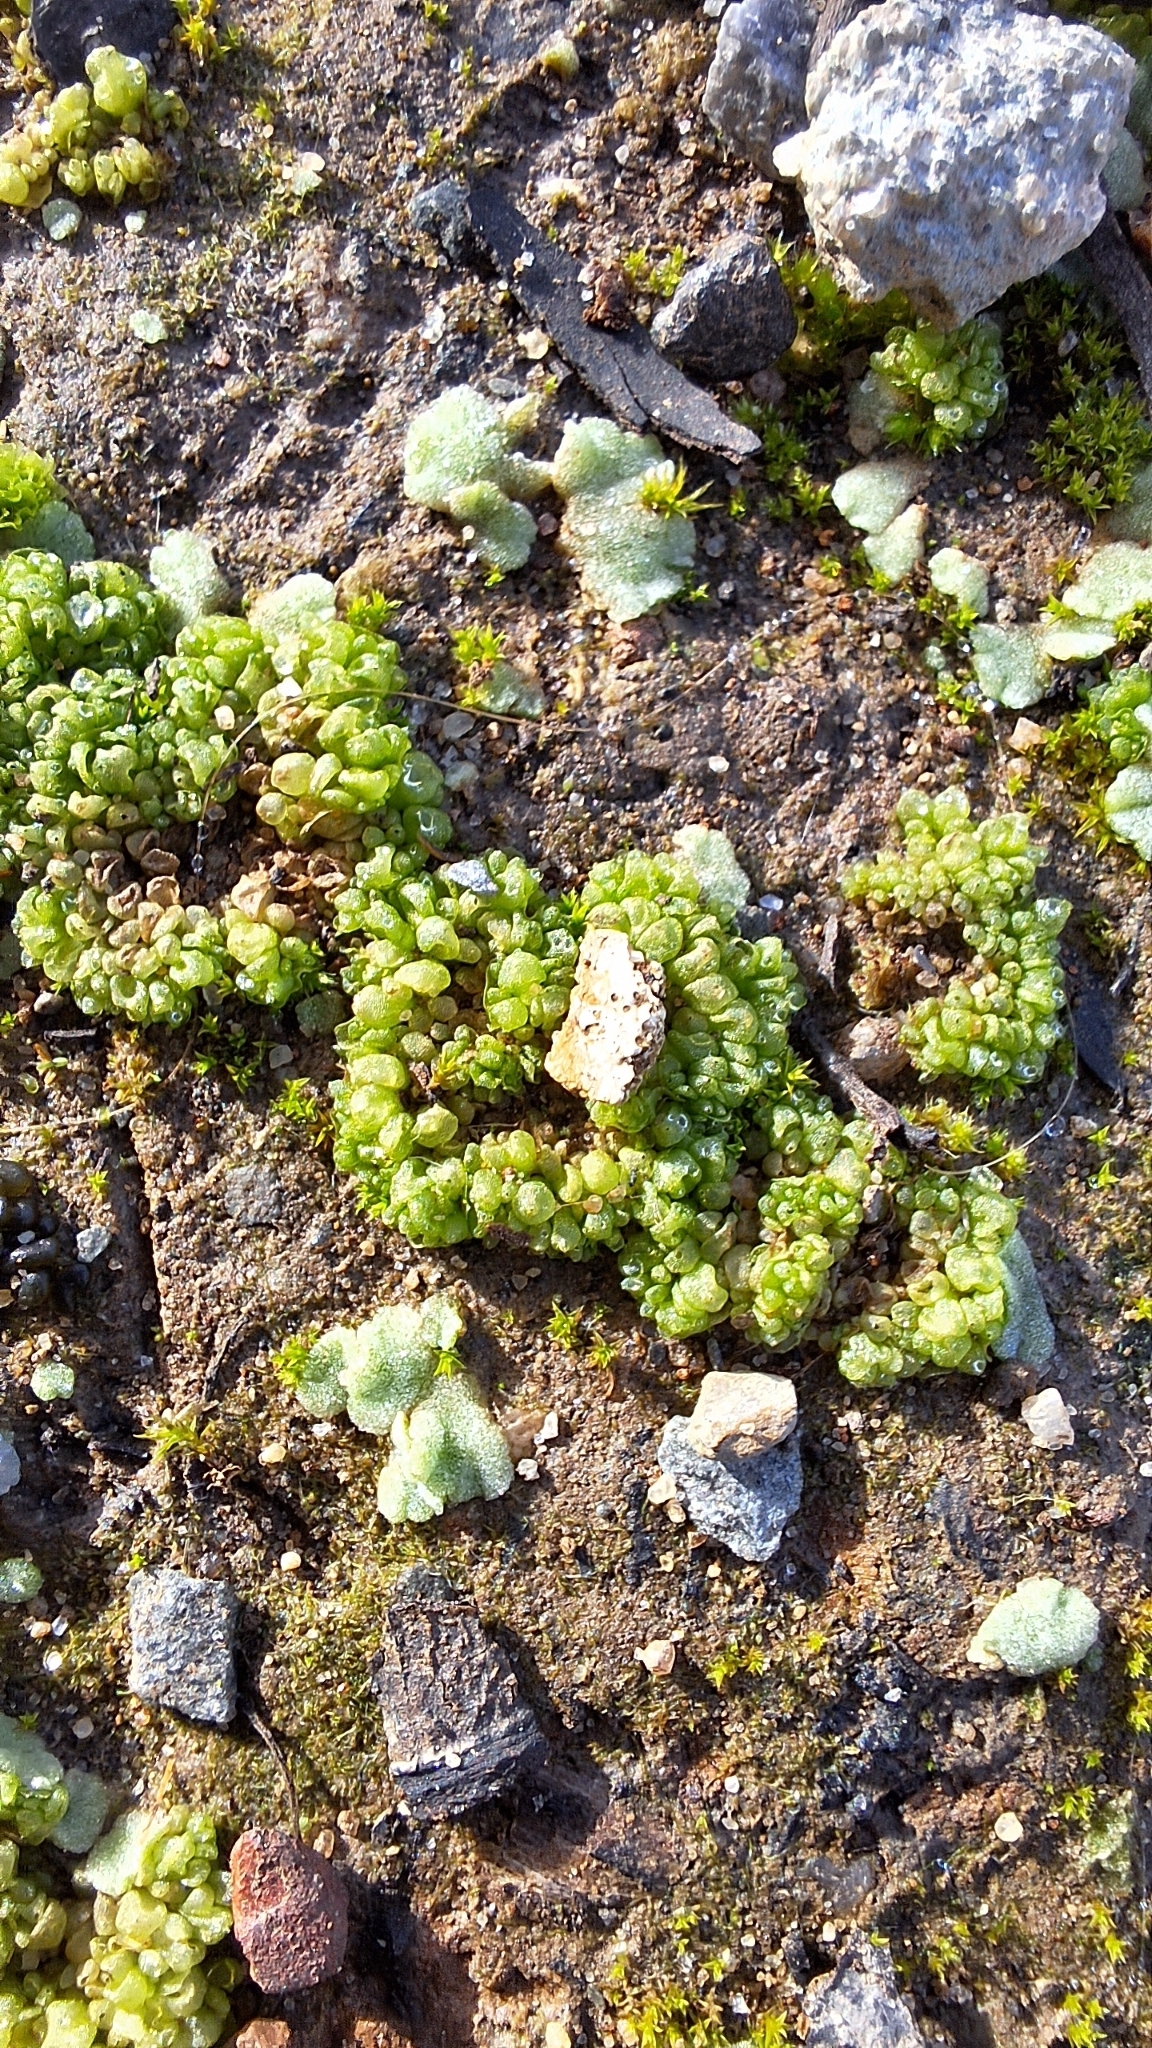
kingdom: Plantae
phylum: Marchantiophyta
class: Marchantiopsida
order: Sphaerocarpales
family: Sphaerocarpaceae
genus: Sphaerocarpos
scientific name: Sphaerocarpos texanus
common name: Texas balloonwort
